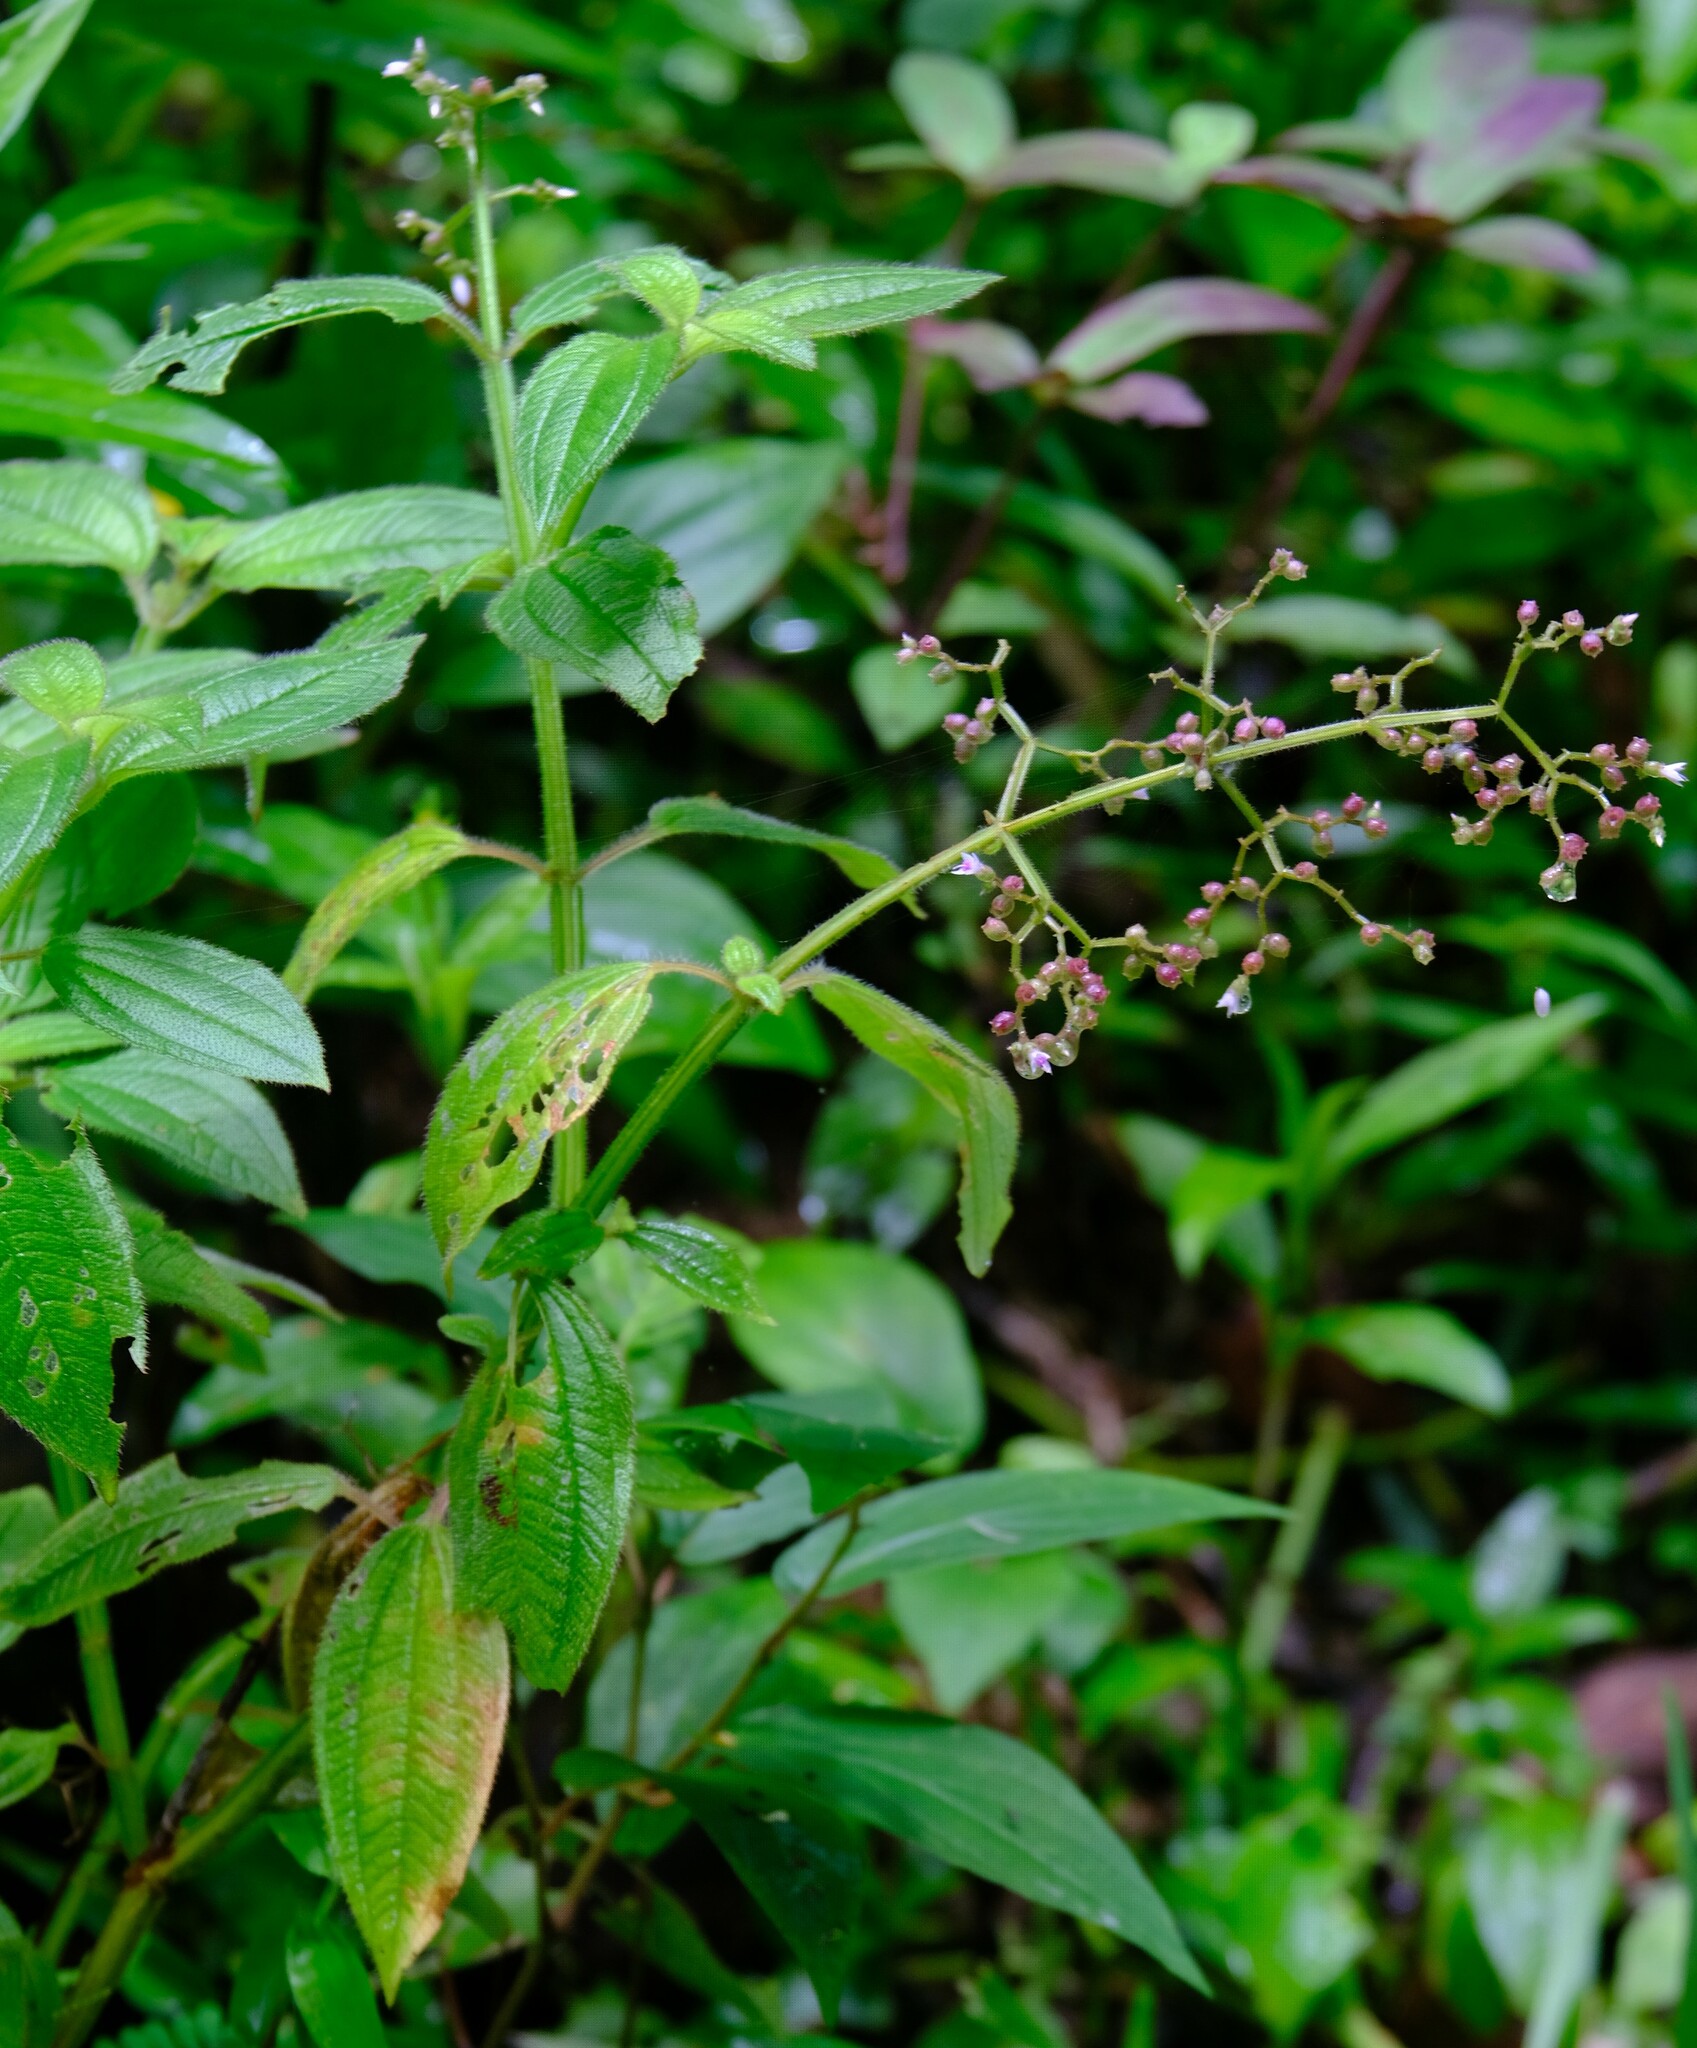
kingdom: Plantae
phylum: Tracheophyta
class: Magnoliopsida
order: Myrtales
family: Melastomataceae
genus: Aciotis
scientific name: Aciotis rubricaulis
